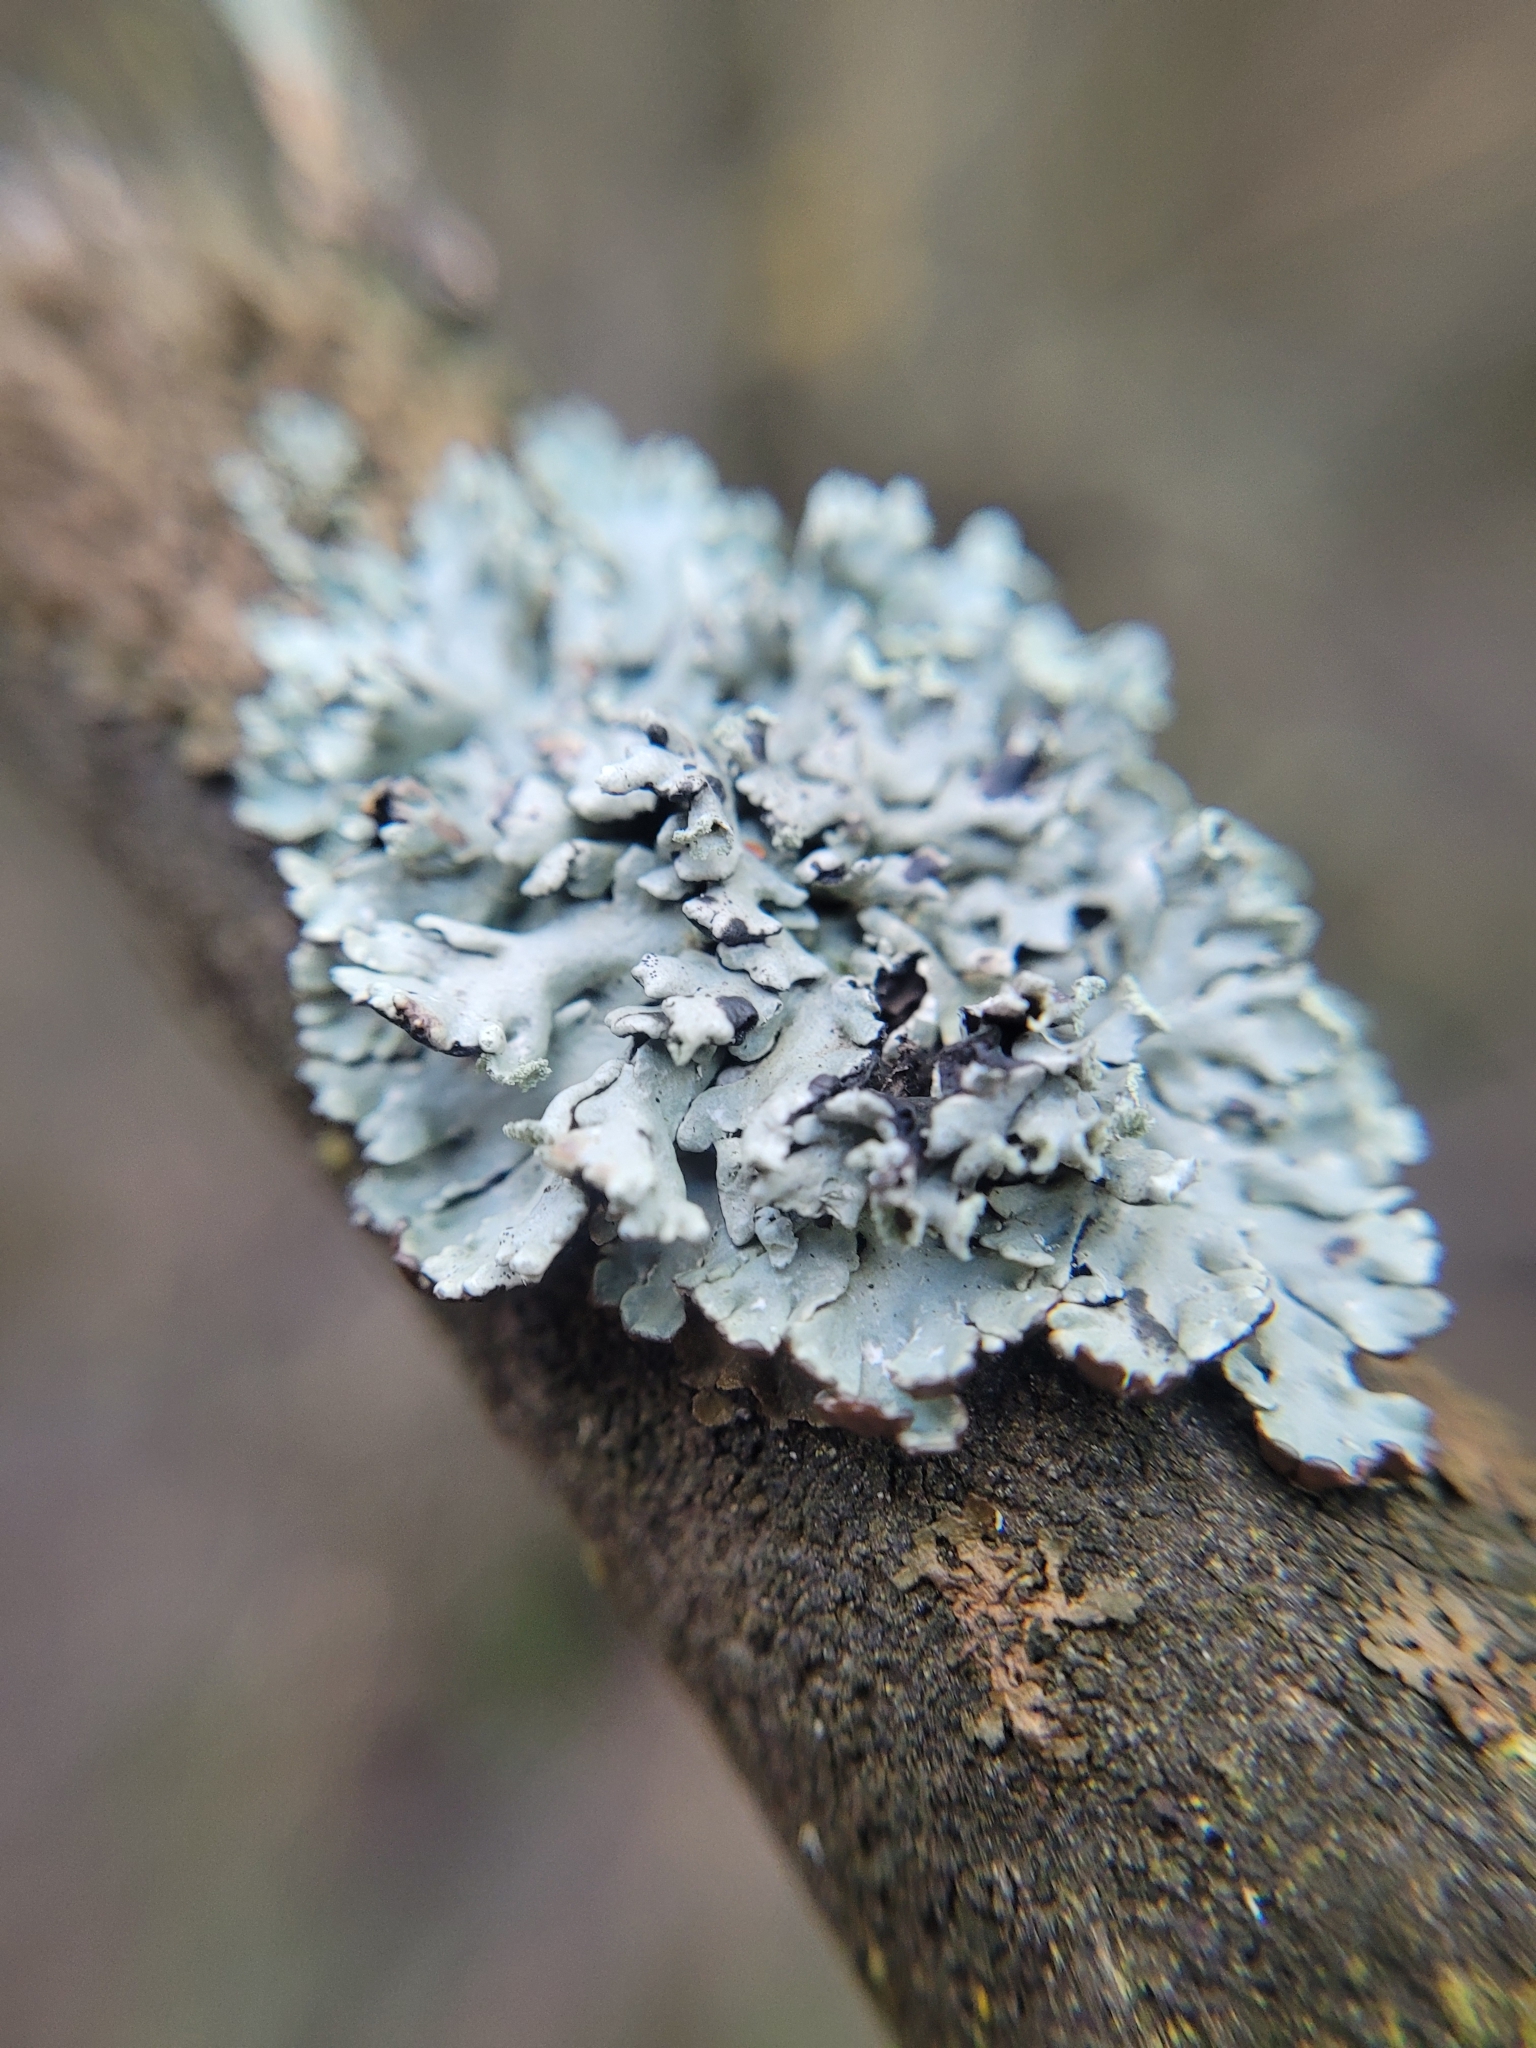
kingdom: Fungi
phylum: Ascomycota
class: Lecanoromycetes
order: Lecanorales
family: Parmeliaceae
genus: Hypogymnia
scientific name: Hypogymnia physodes
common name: Dark crottle
